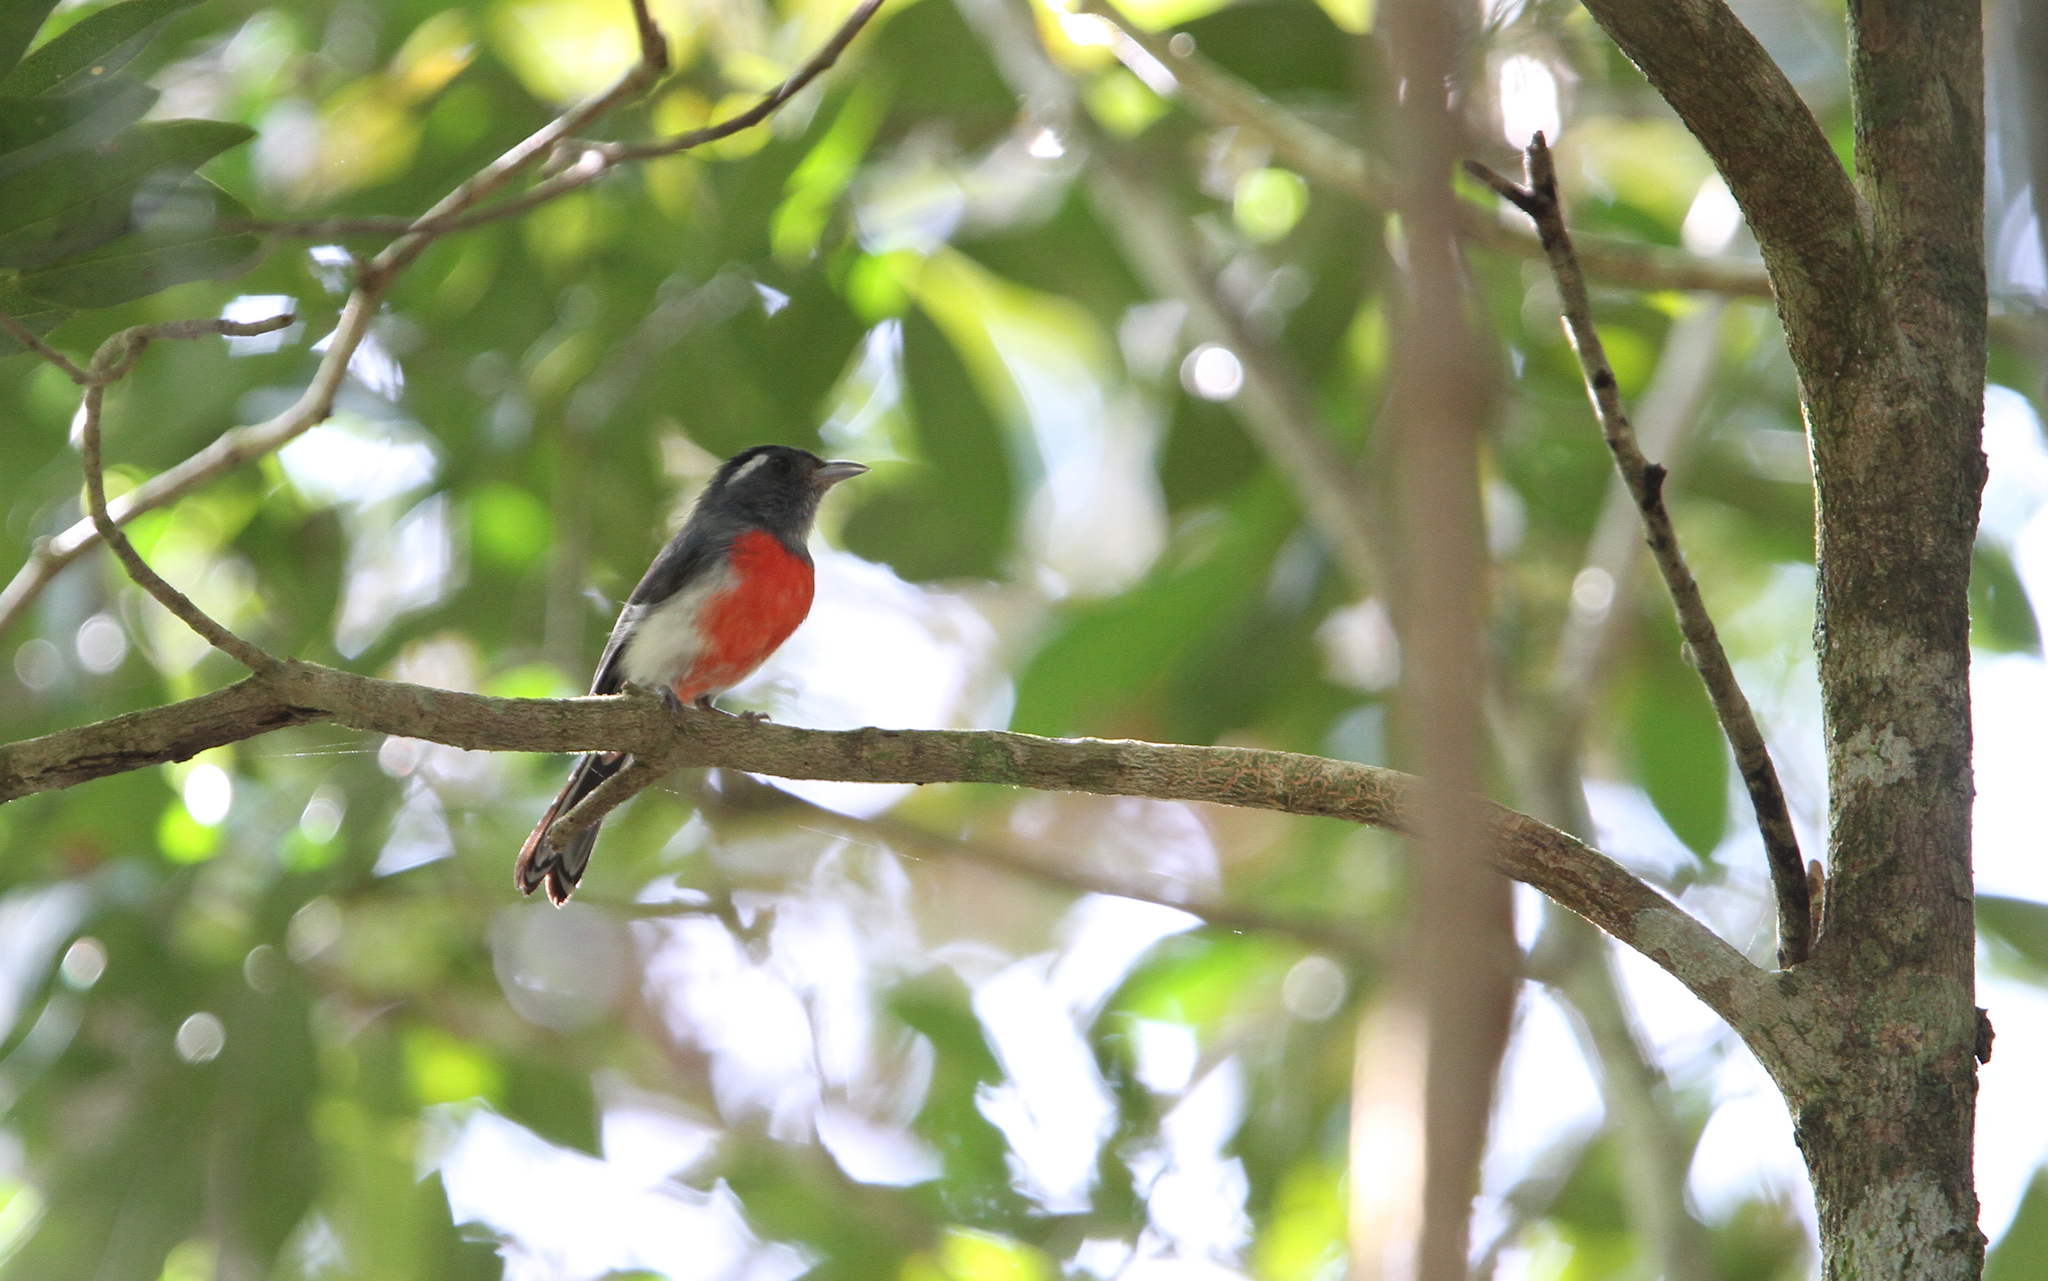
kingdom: Animalia
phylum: Chordata
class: Aves
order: Passeriformes
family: Cardinalidae
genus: Granatellus
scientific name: Granatellus sallaei
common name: Gray-throated chat
